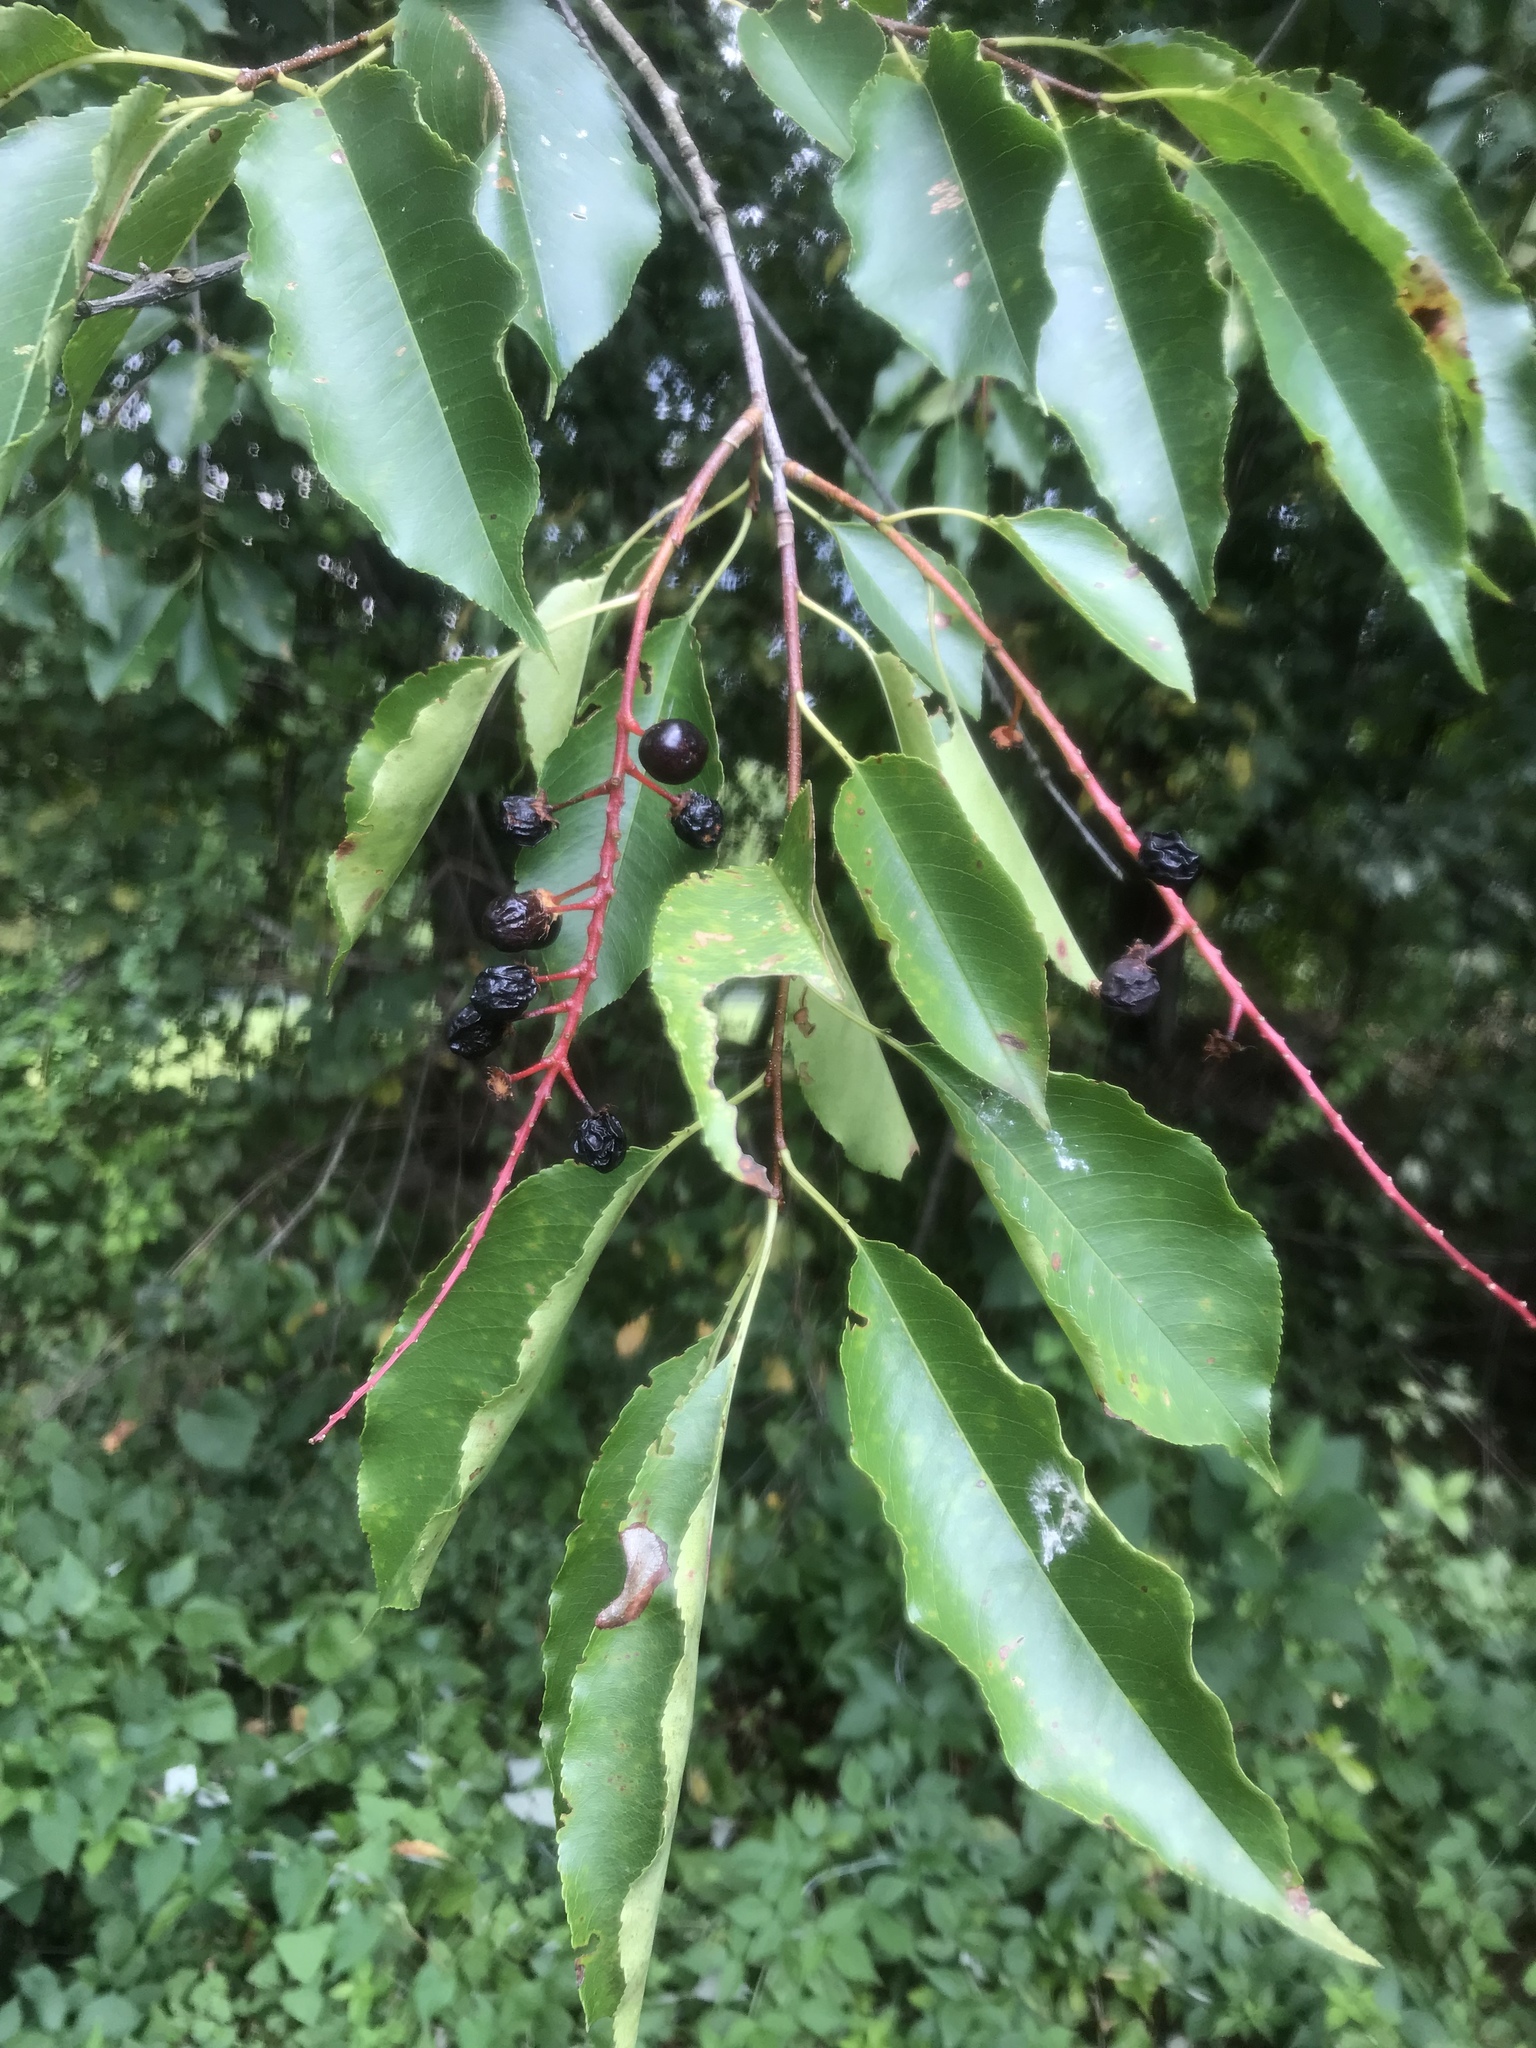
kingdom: Plantae
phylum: Tracheophyta
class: Magnoliopsida
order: Rosales
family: Rosaceae
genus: Prunus
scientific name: Prunus serotina
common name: Black cherry
